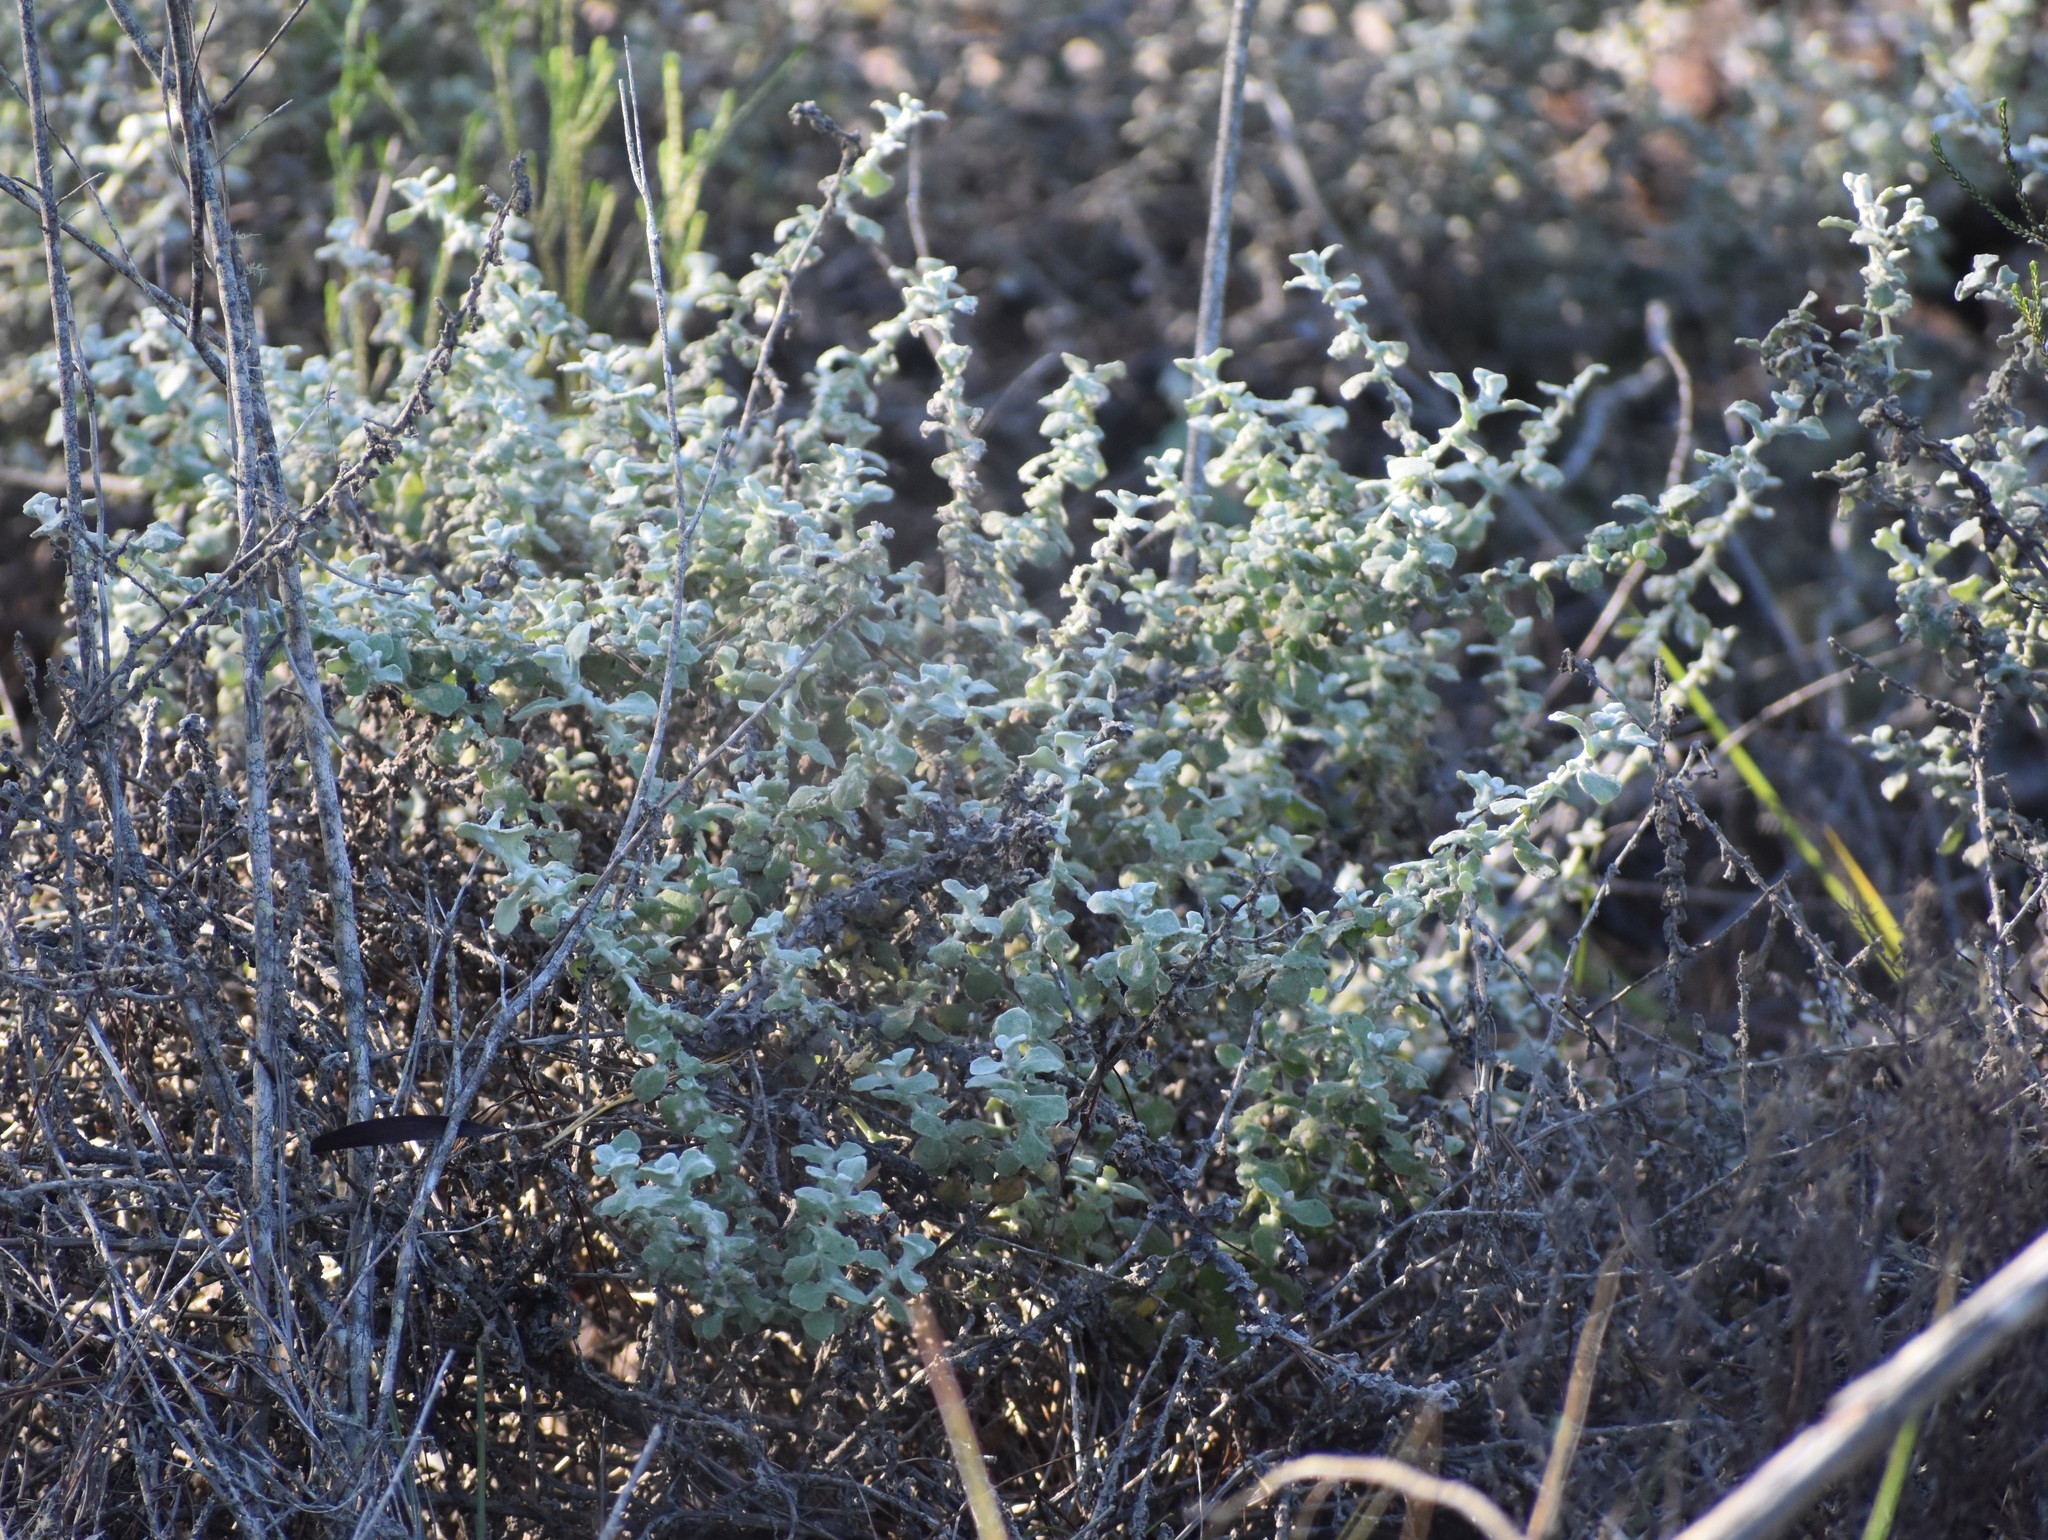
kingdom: Plantae
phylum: Tracheophyta
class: Magnoliopsida
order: Asterales
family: Asteraceae
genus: Helichrysum
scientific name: Helichrysum petiolare
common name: Licorice-plant
